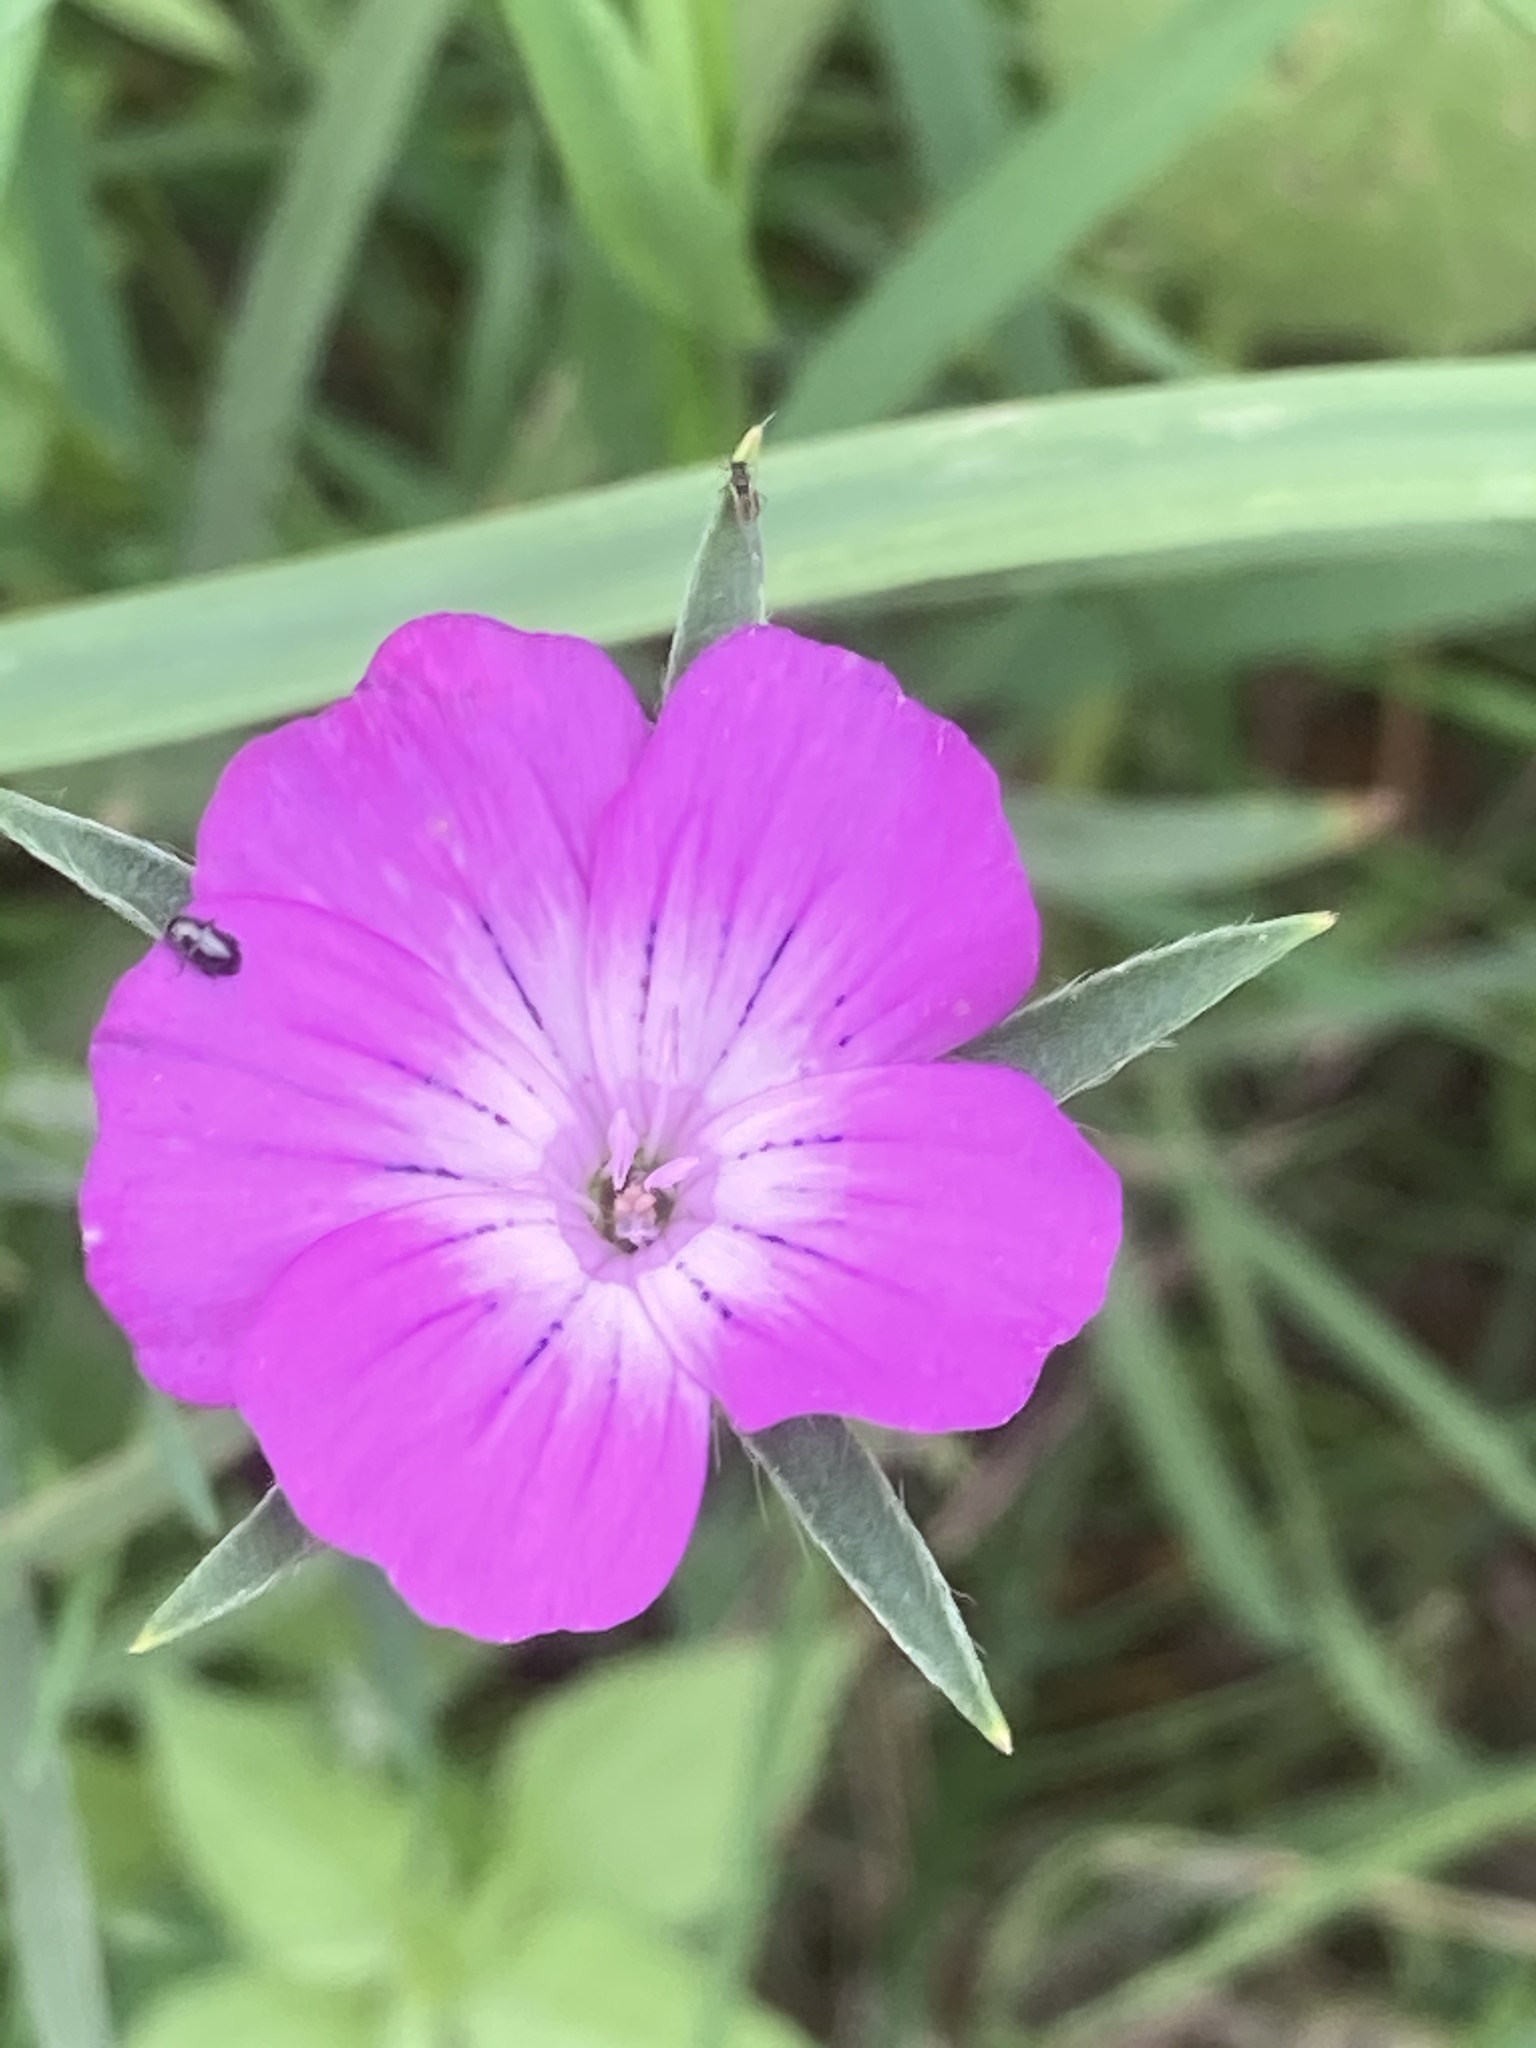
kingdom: Plantae
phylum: Tracheophyta
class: Magnoliopsida
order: Caryophyllales
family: Caryophyllaceae
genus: Agrostemma
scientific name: Agrostemma githago
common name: Common corncockle
